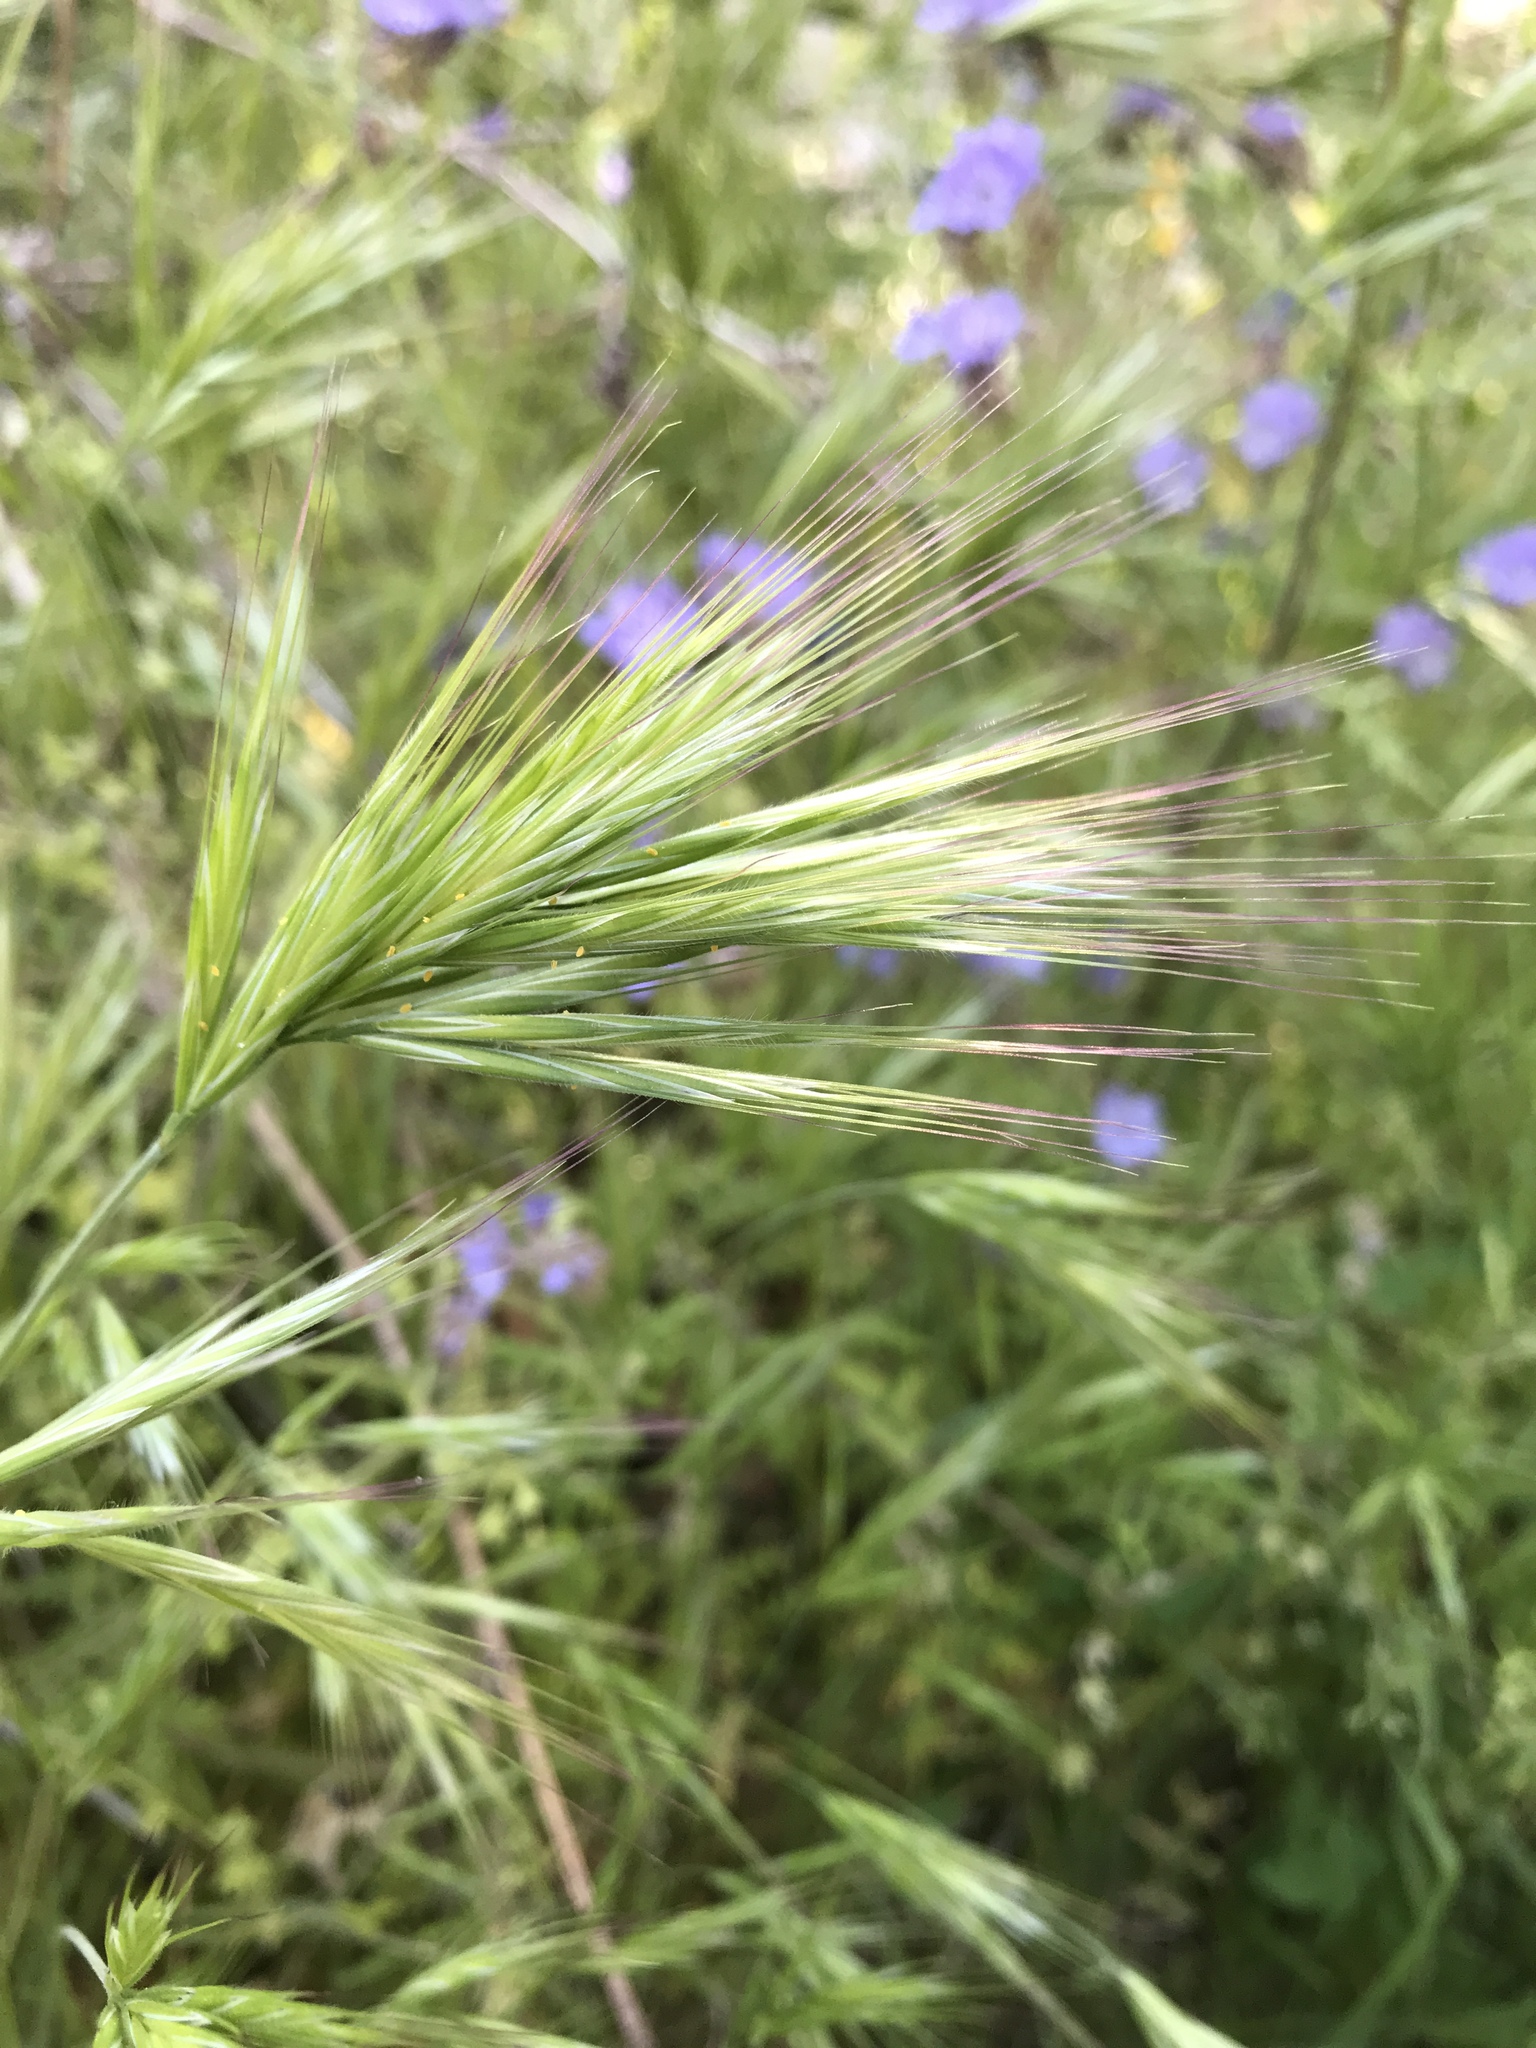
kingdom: Plantae
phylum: Tracheophyta
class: Liliopsida
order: Poales
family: Poaceae
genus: Bromus
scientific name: Bromus rubens
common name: Red brome
